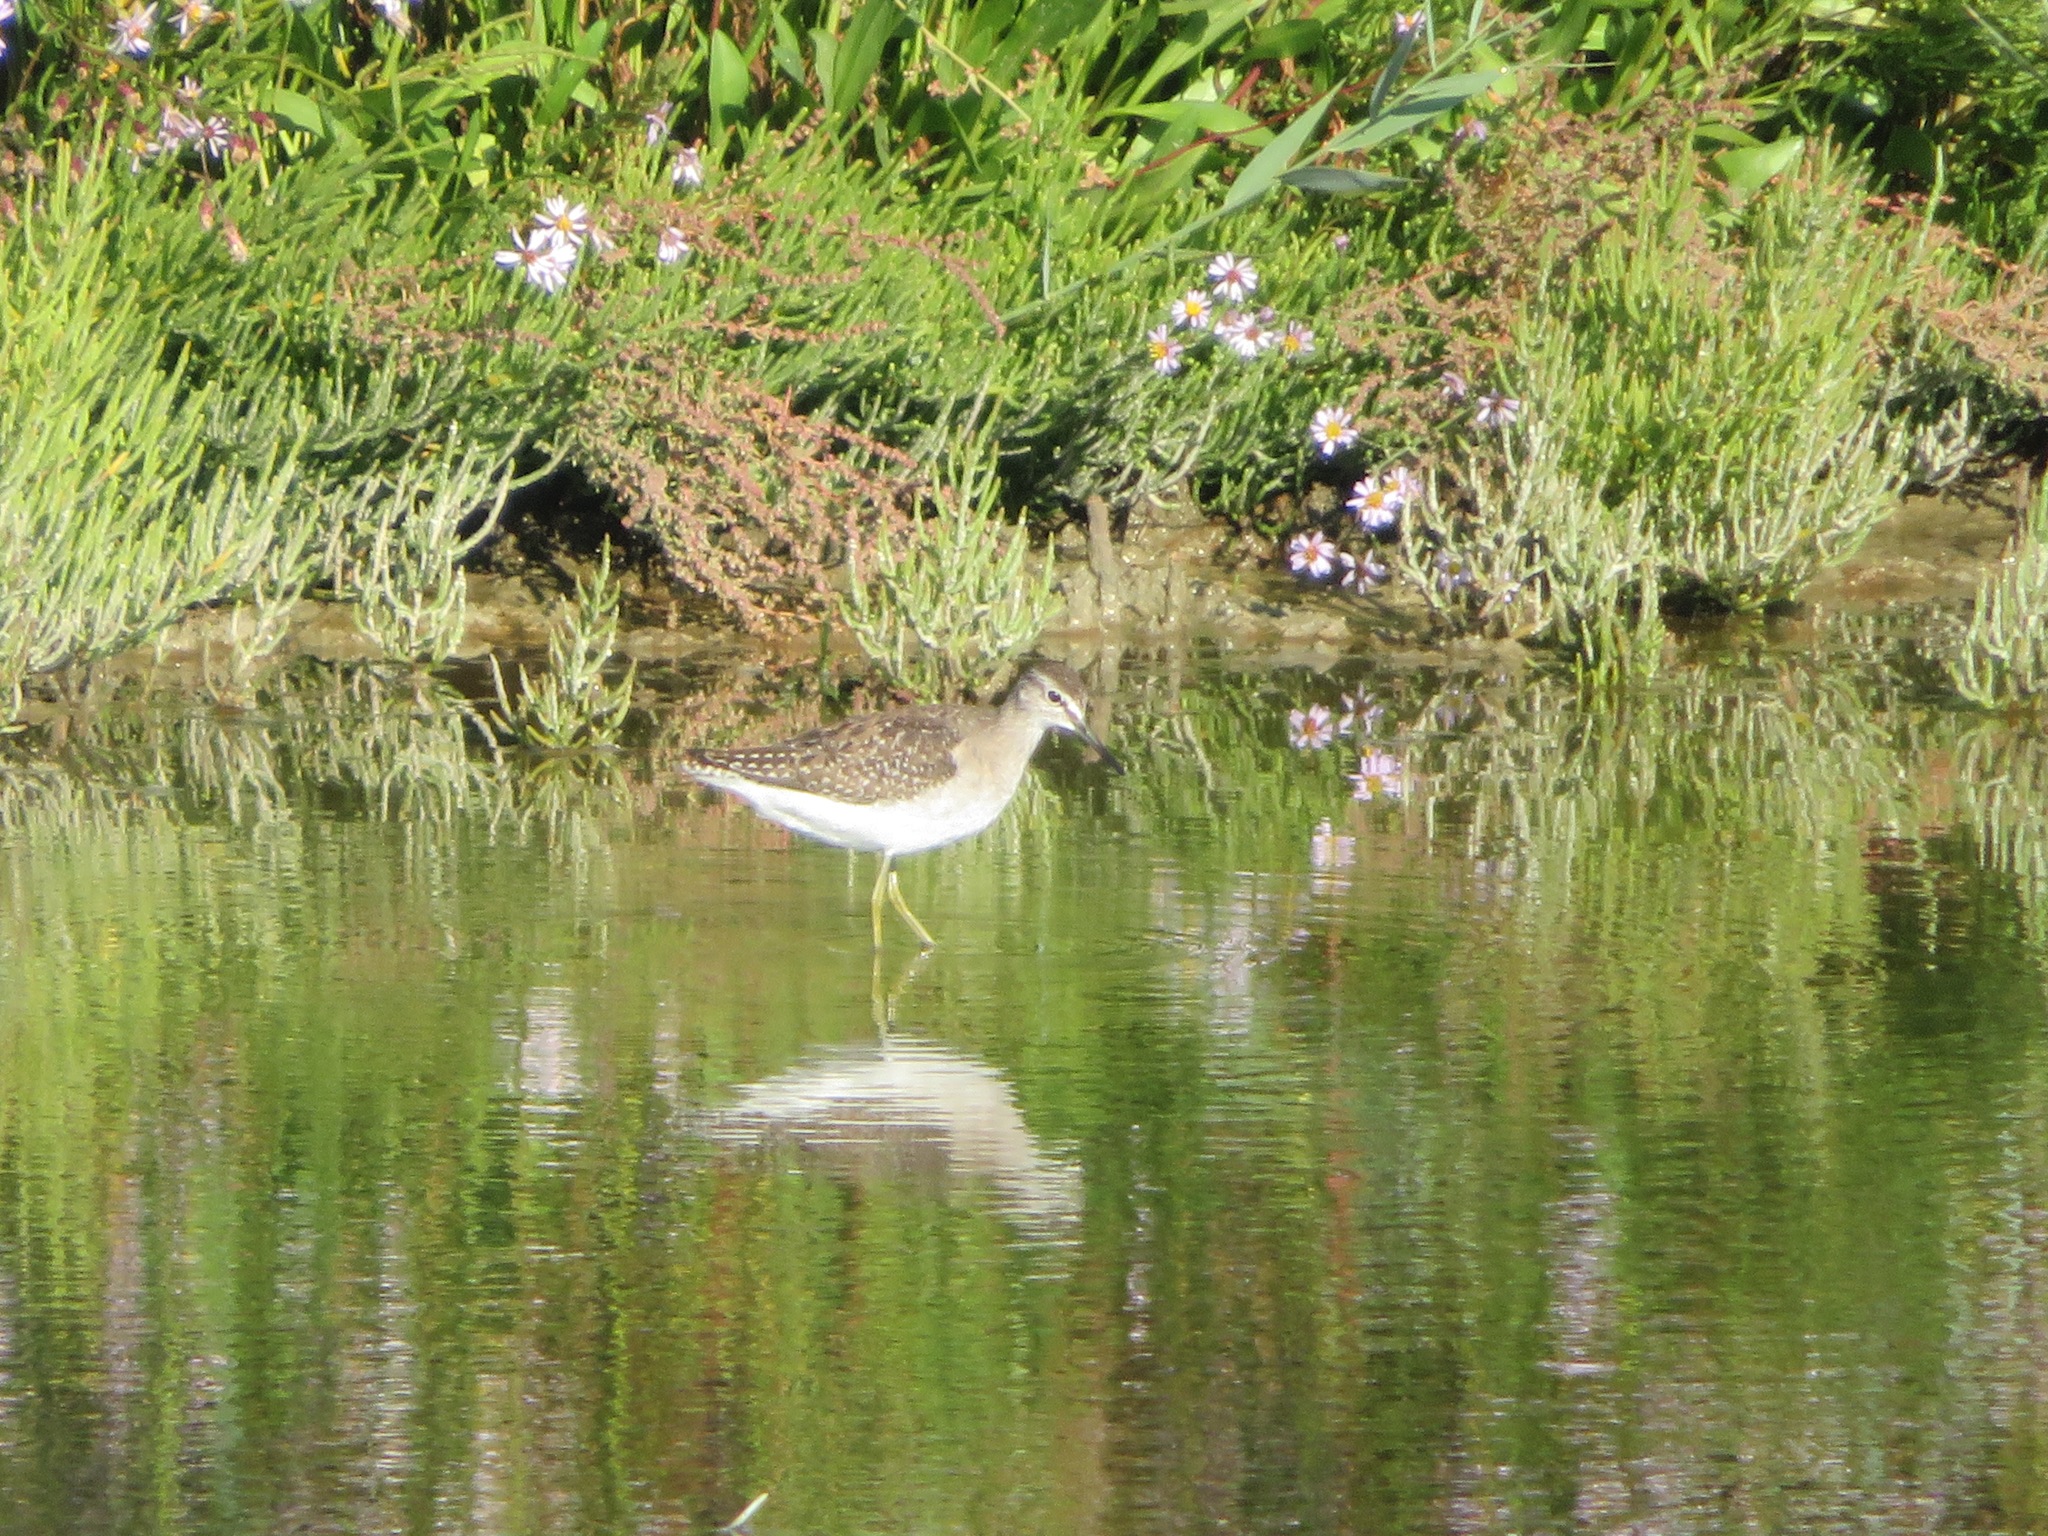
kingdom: Animalia
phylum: Chordata
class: Aves
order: Charadriiformes
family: Scolopacidae
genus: Tringa
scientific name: Tringa glareola
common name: Wood sandpiper
